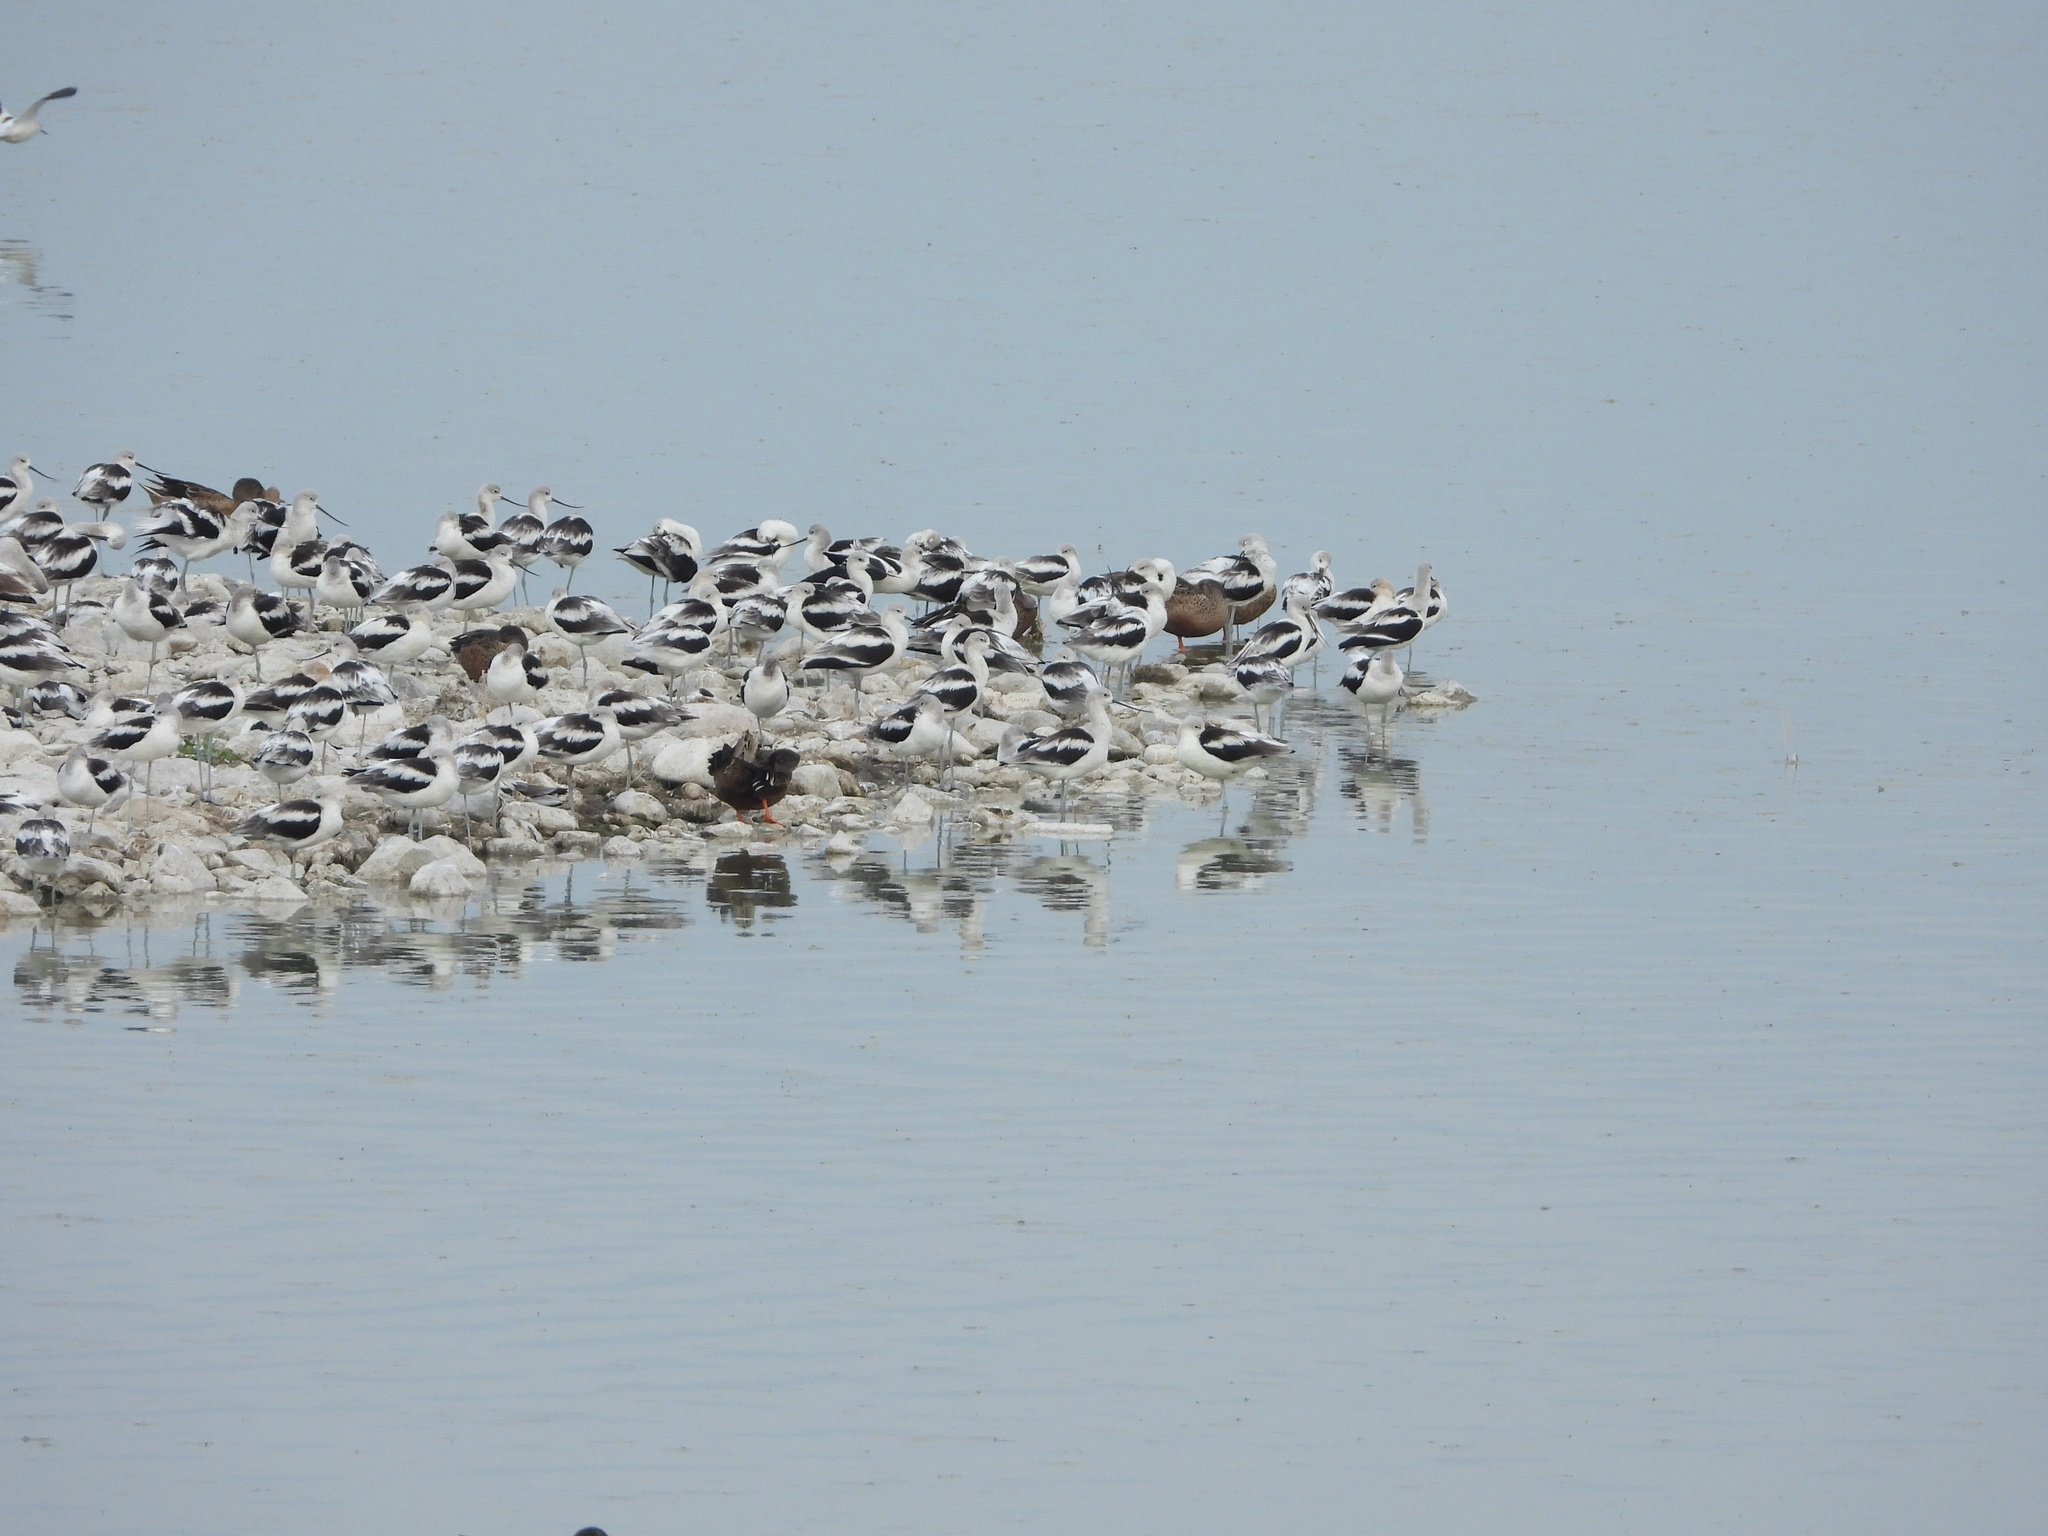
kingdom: Animalia
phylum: Chordata
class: Aves
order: Anseriformes
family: Anatidae
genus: Spatula
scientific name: Spatula clypeata
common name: Northern shoveler
